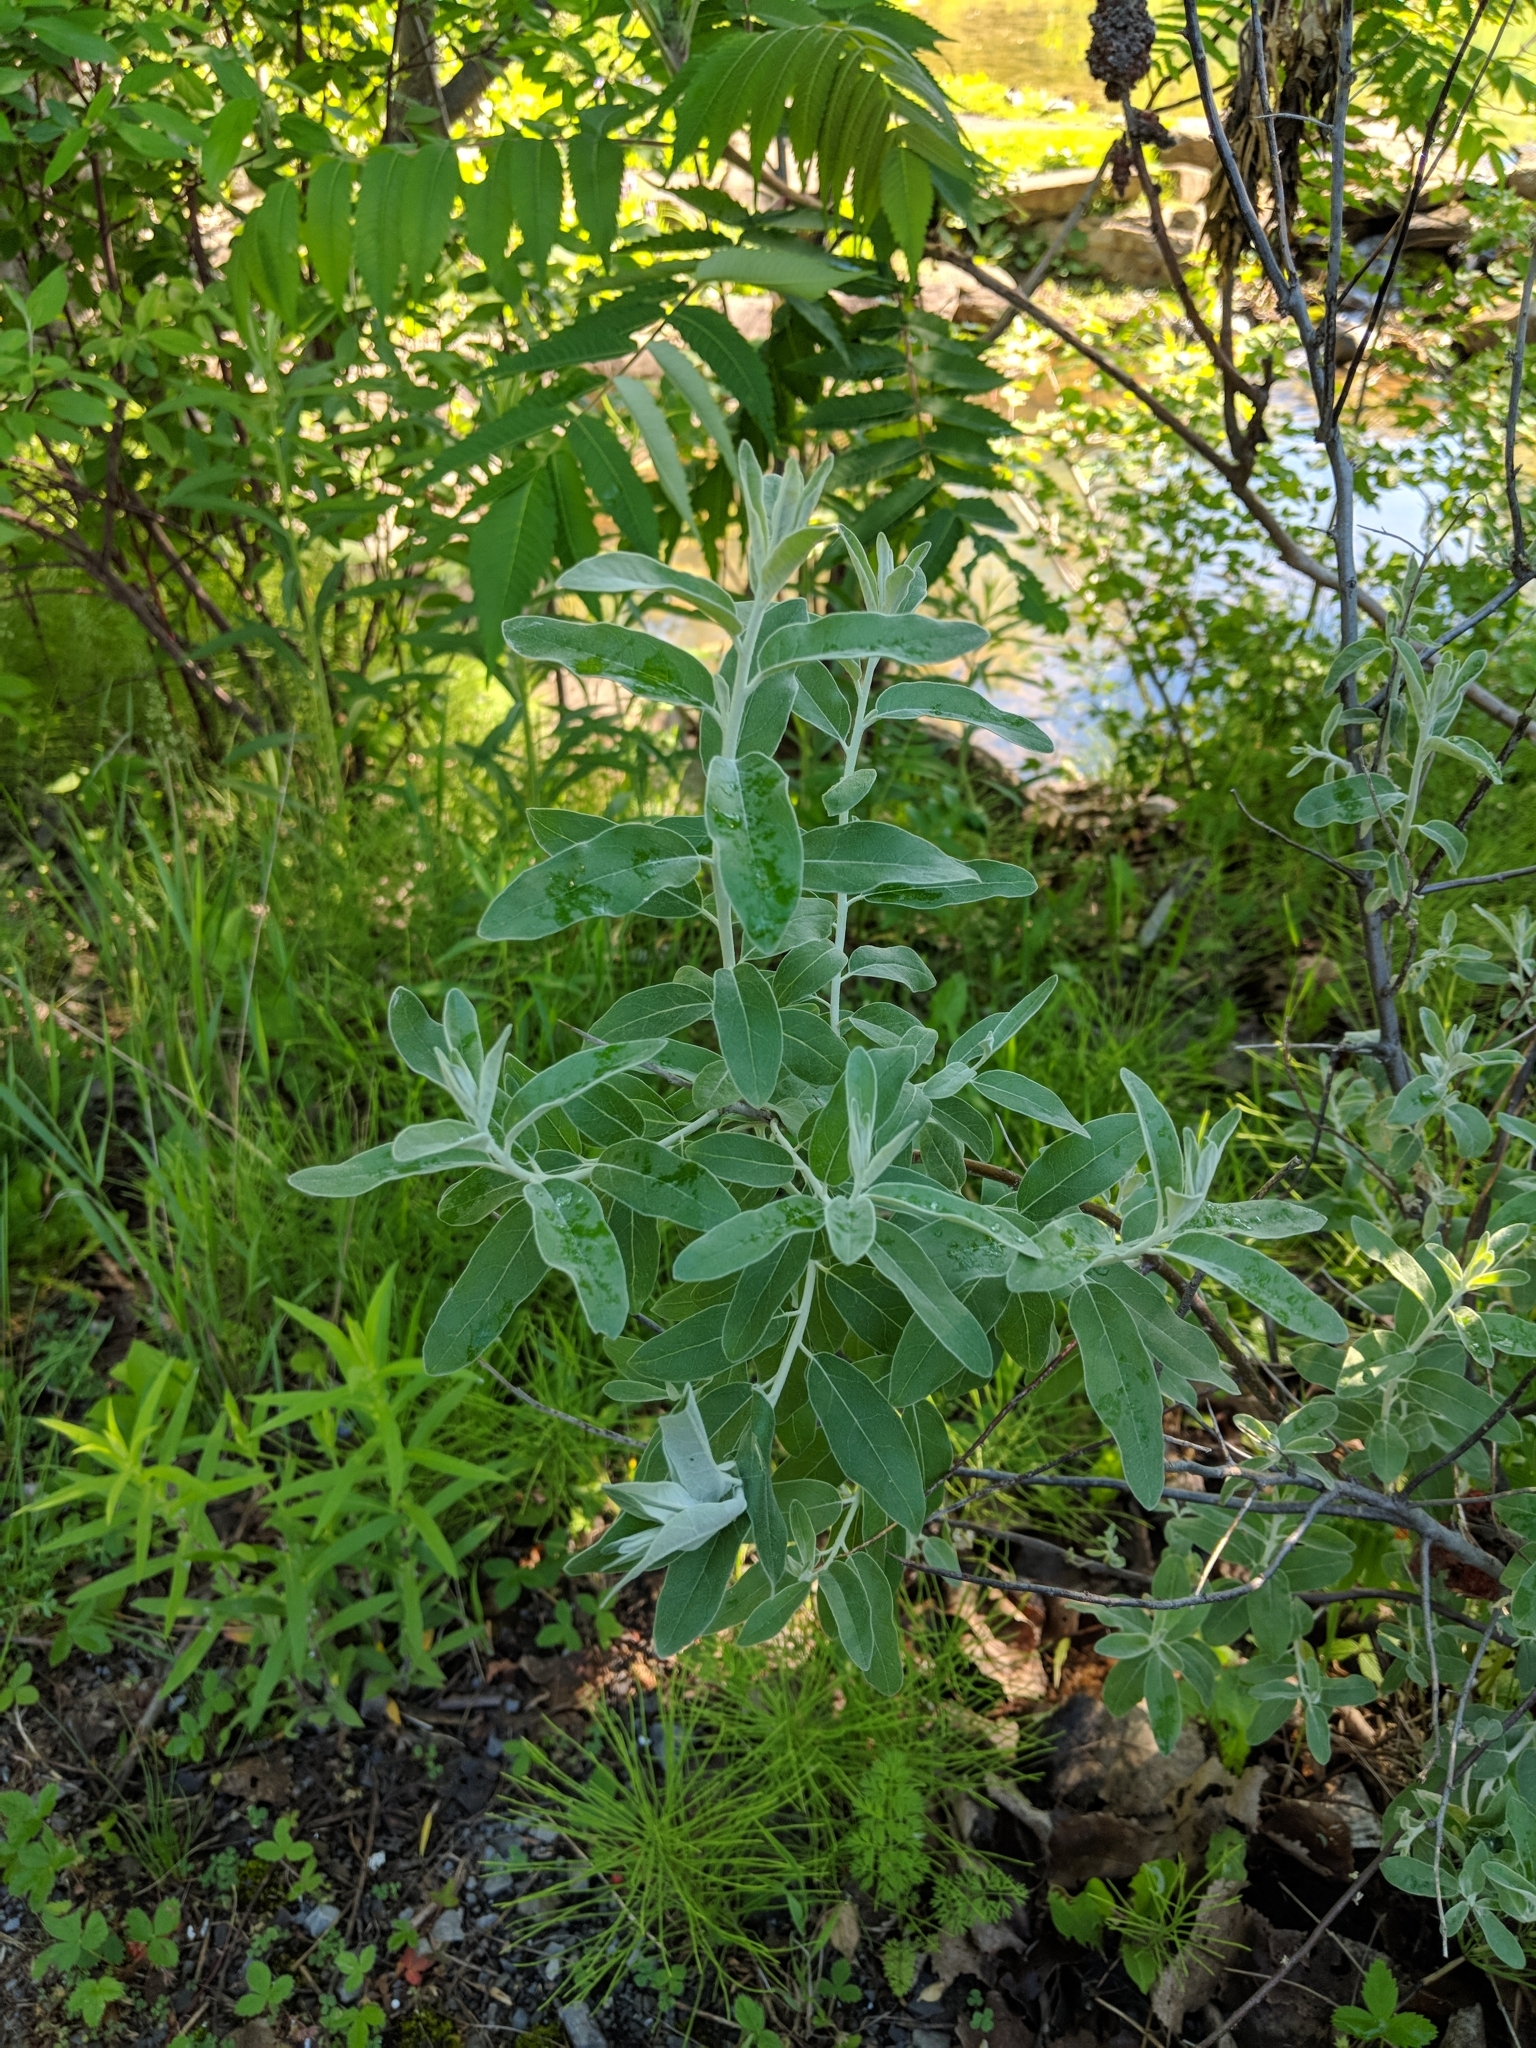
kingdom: Plantae
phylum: Tracheophyta
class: Magnoliopsida
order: Rosales
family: Elaeagnaceae
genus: Elaeagnus
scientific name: Elaeagnus angustifolia
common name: Russian olive
